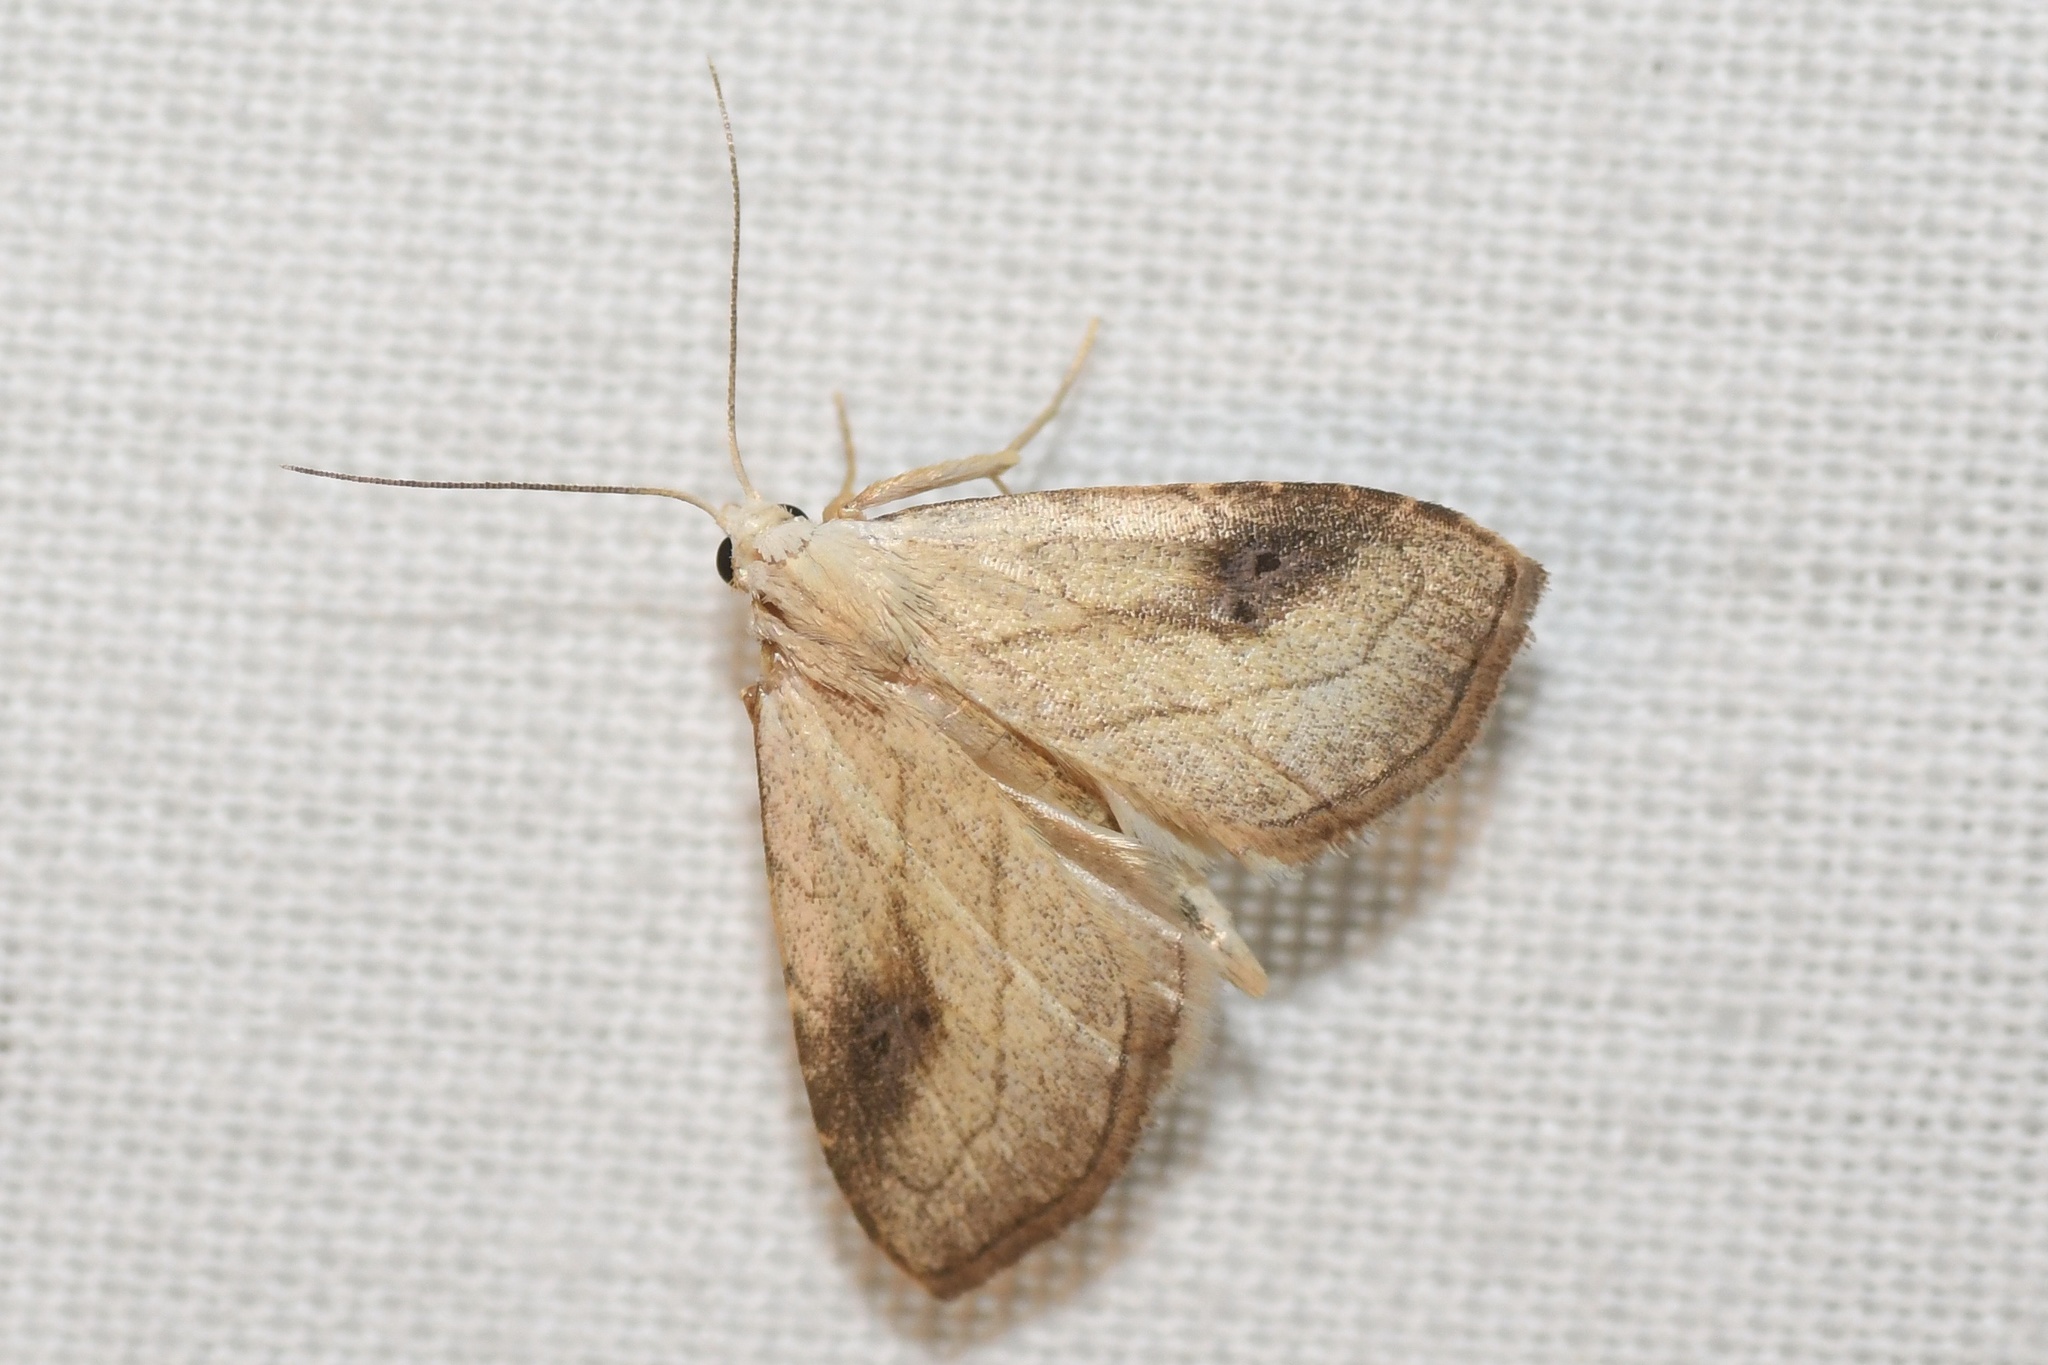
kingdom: Animalia
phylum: Arthropoda
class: Insecta
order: Lepidoptera
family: Erebidae
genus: Rivula
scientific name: Rivula propinqualis
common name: Spotted grass moth
